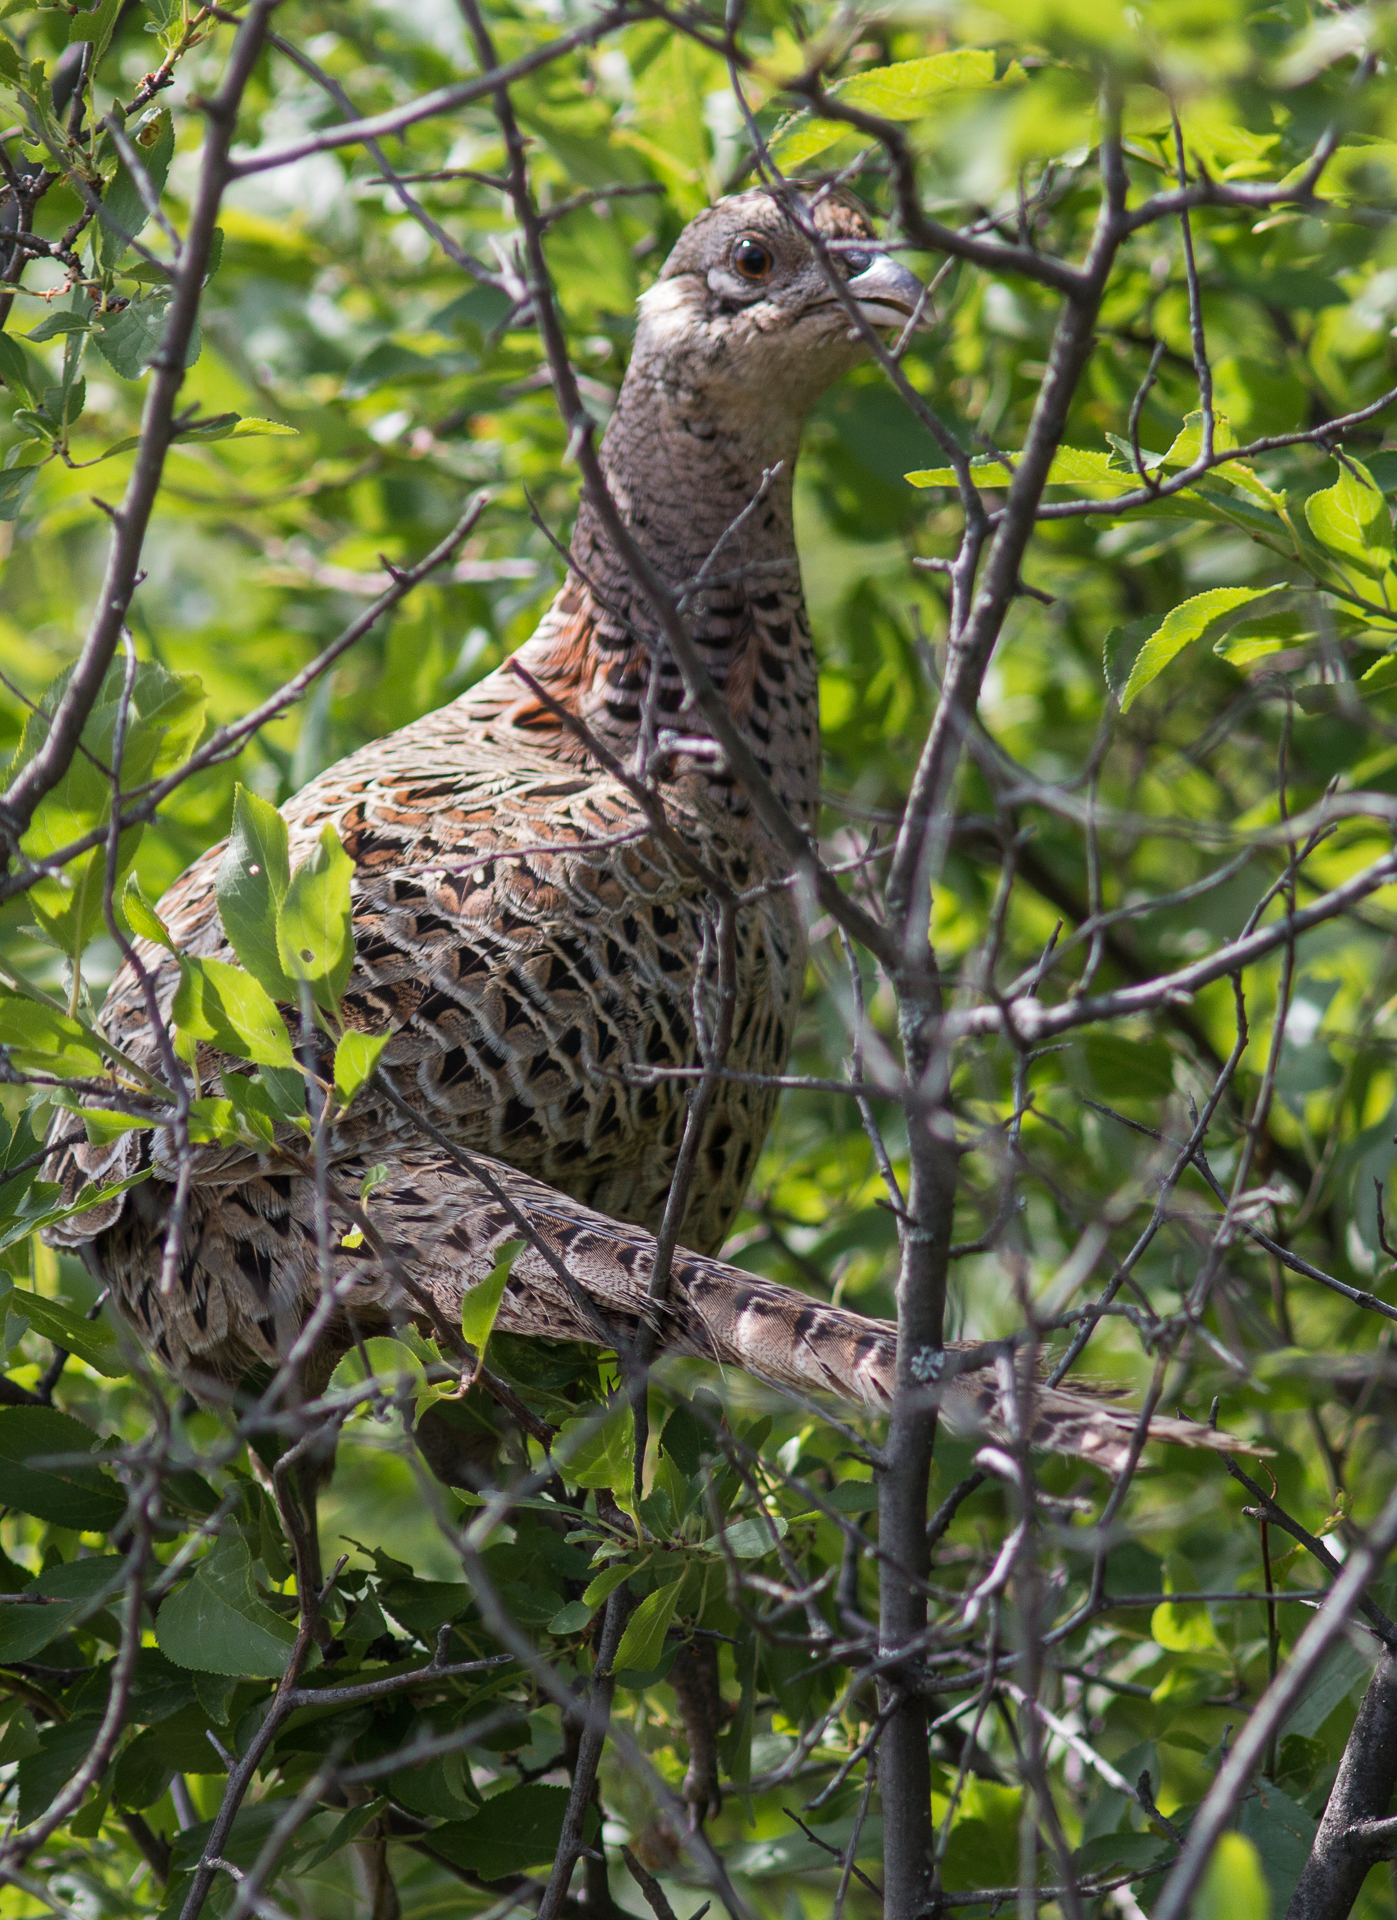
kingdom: Animalia
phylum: Chordata
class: Aves
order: Galliformes
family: Phasianidae
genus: Phasianus
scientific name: Phasianus colchicus
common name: Common pheasant
